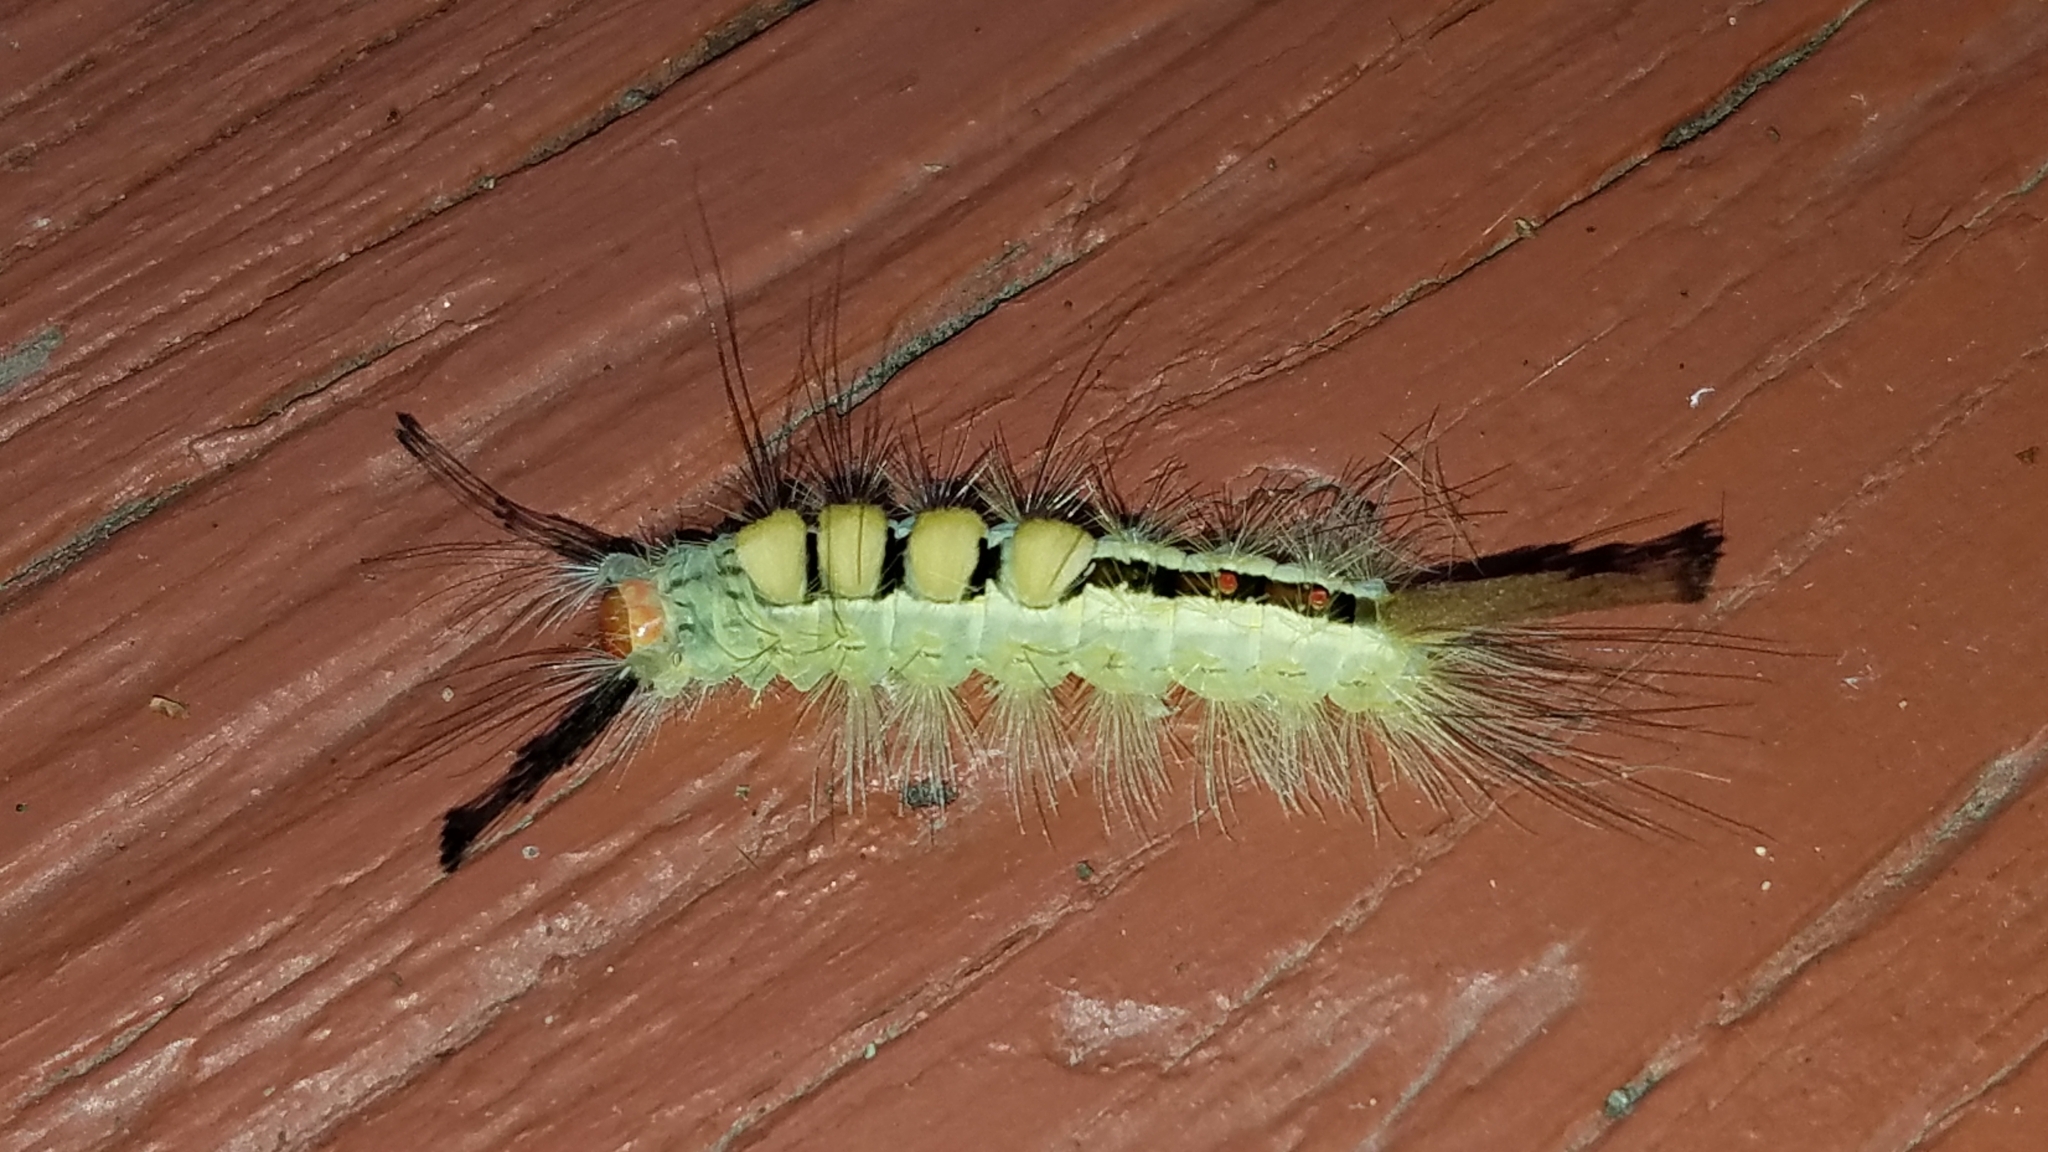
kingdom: Animalia
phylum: Arthropoda
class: Insecta
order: Lepidoptera
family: Erebidae
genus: Orgyia
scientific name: Orgyia leucostigma
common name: White-marked tussock moth
